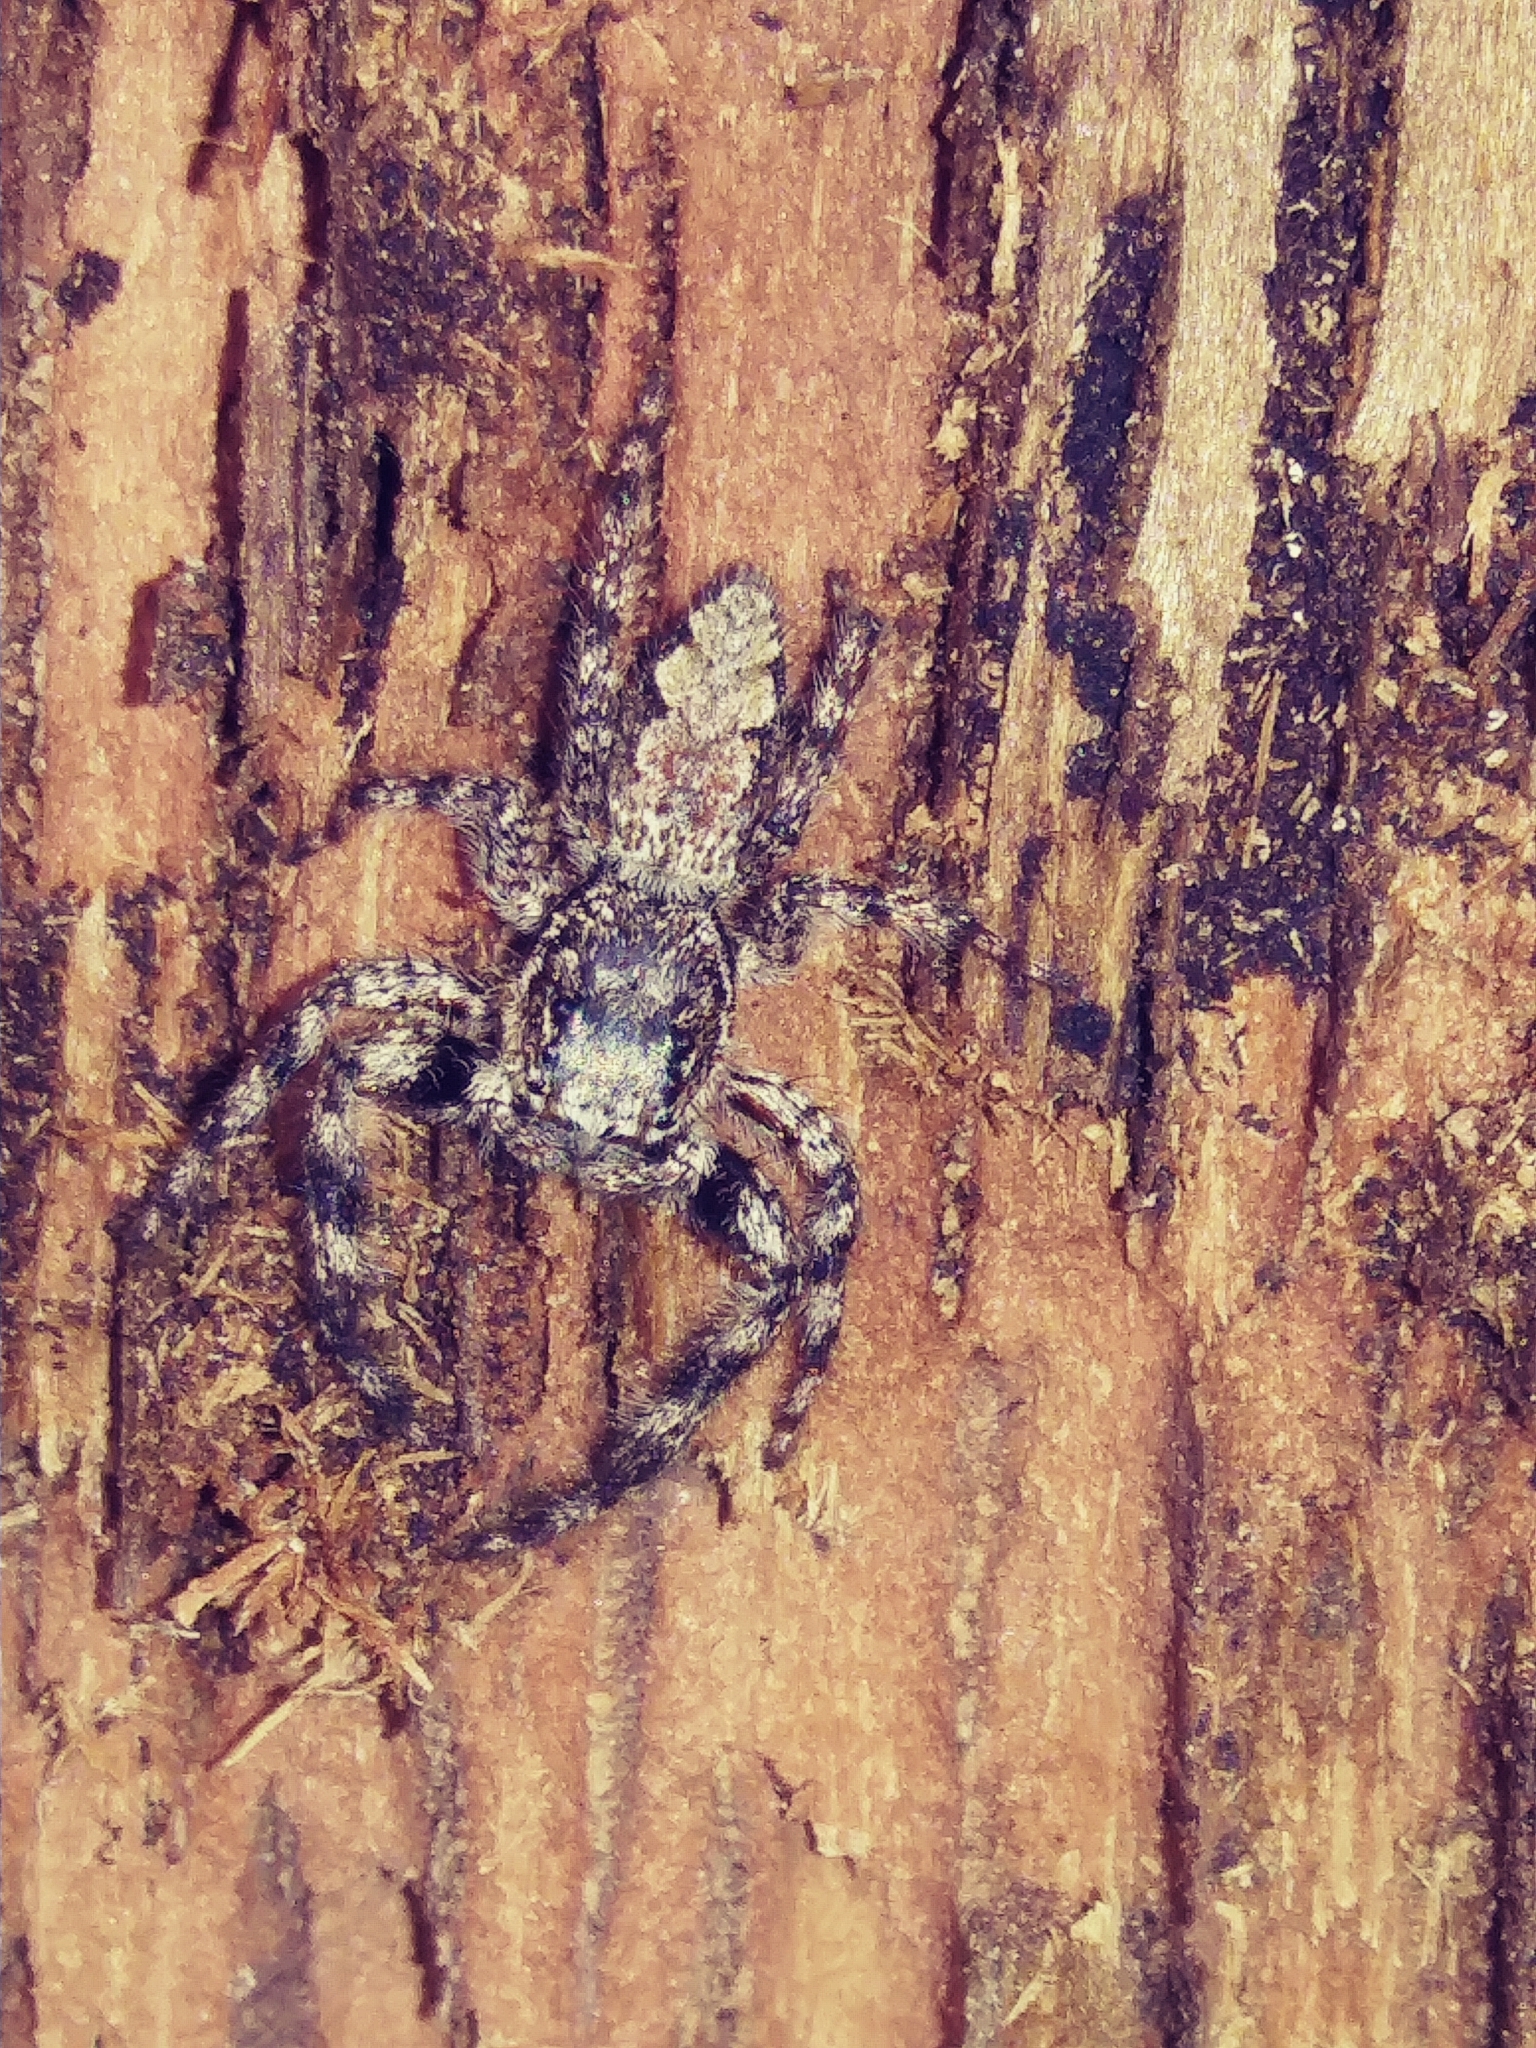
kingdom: Animalia
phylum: Arthropoda
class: Arachnida
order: Araneae
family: Salticidae
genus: Platycryptus
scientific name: Platycryptus undatus
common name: Tan jumping spider
